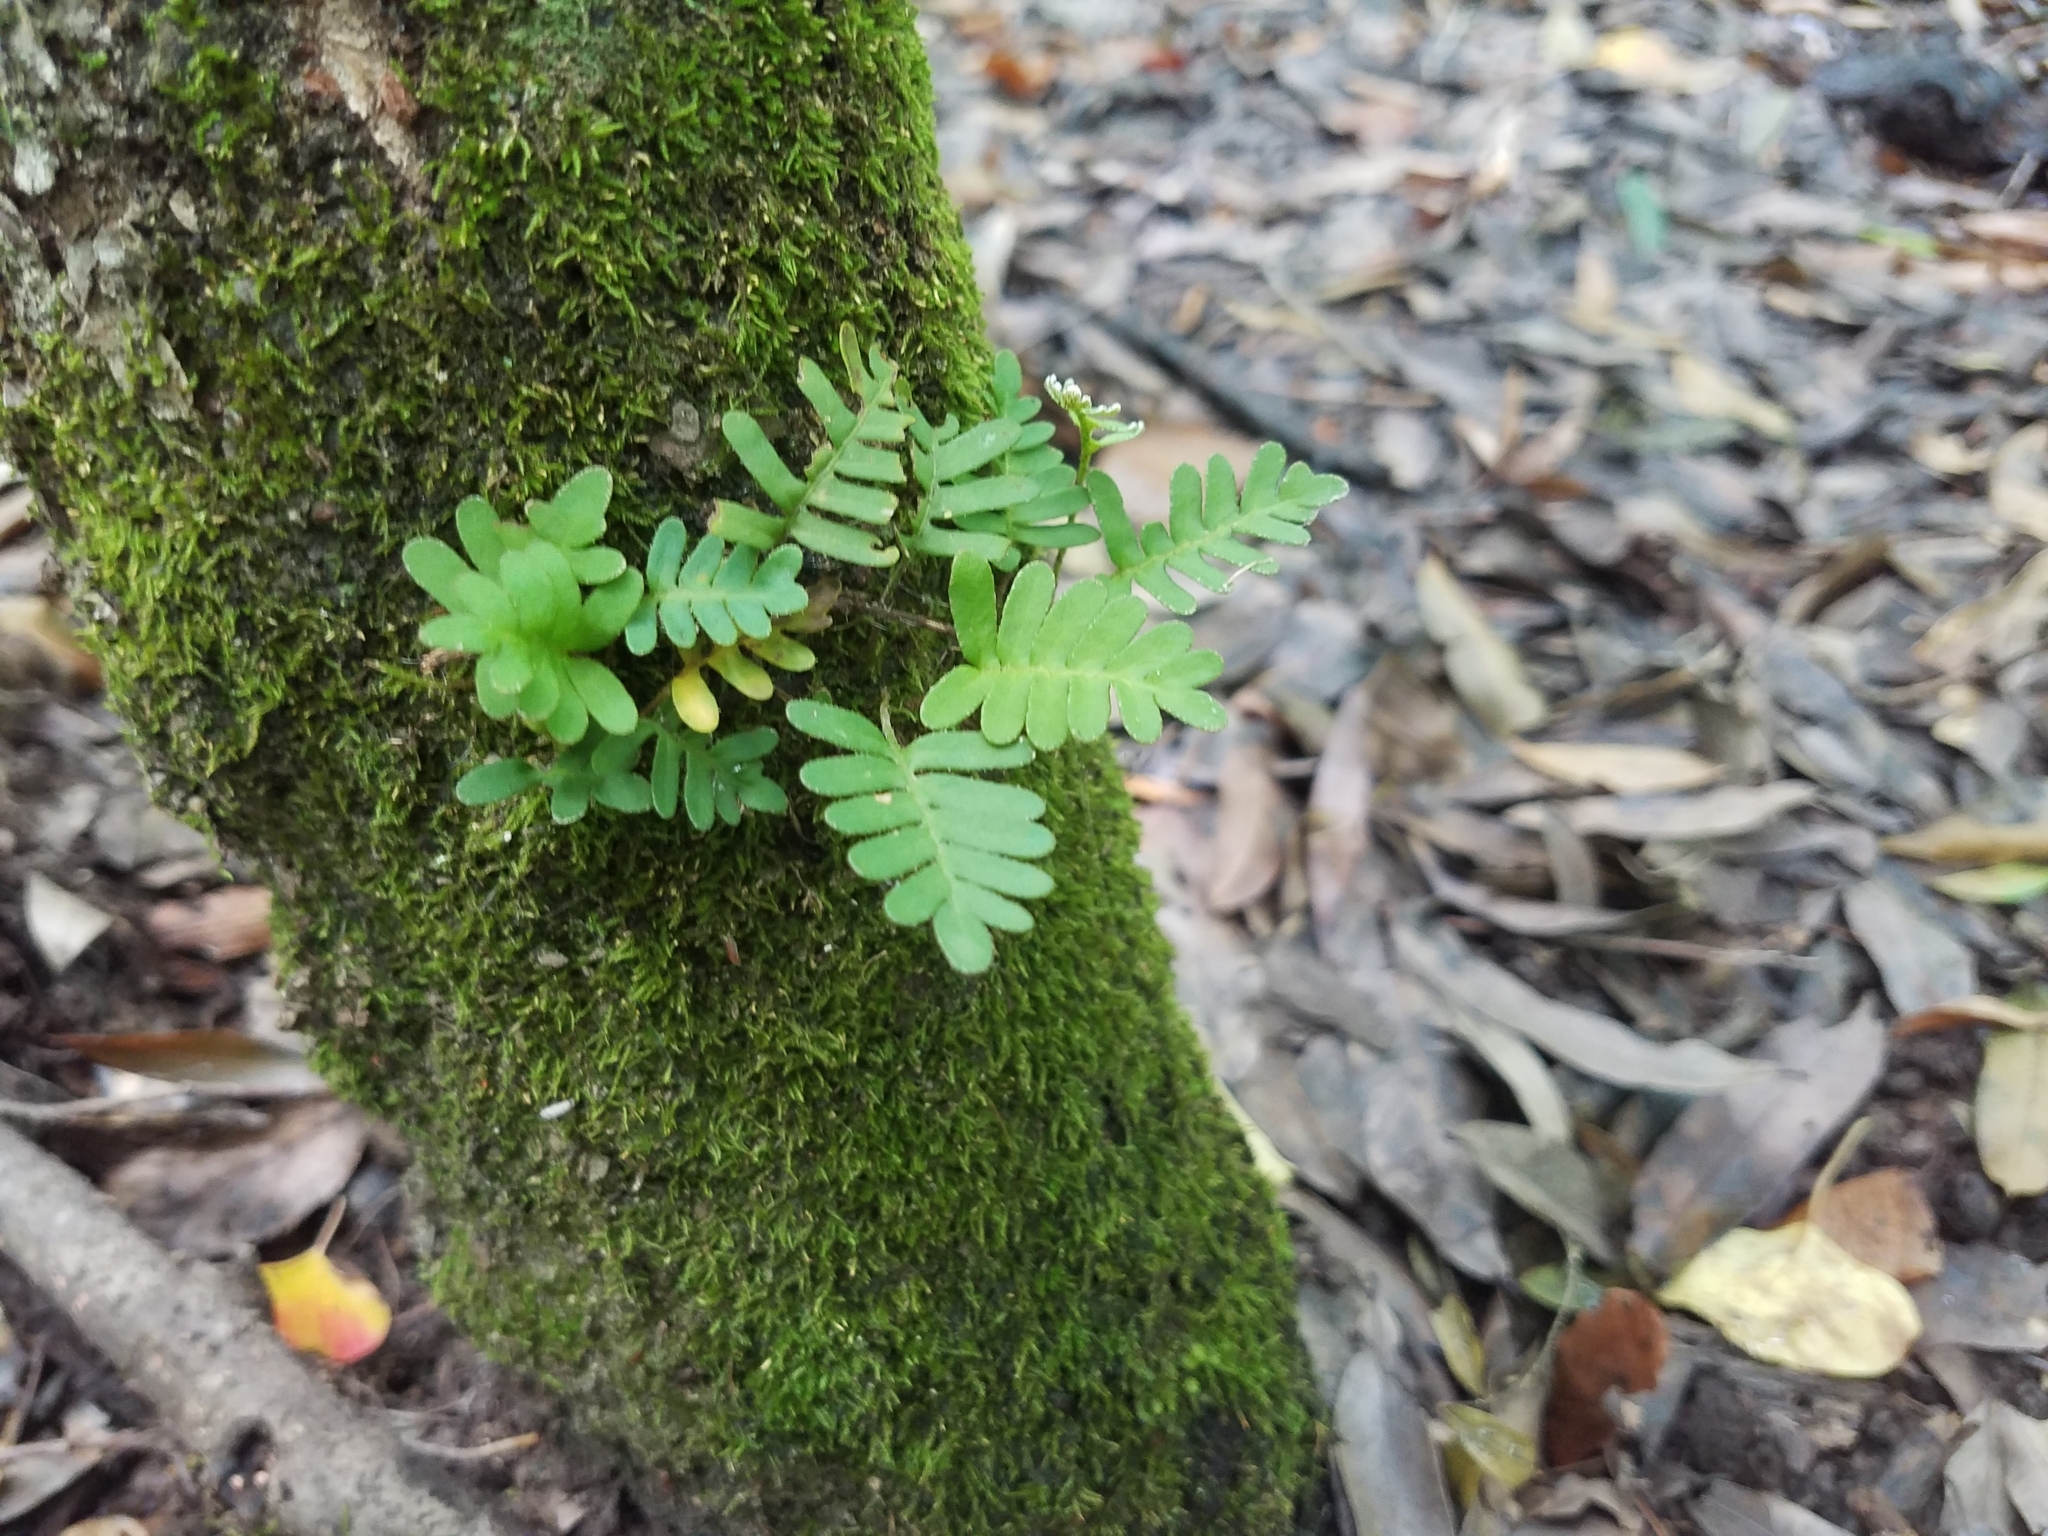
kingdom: Plantae
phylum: Tracheophyta
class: Polypodiopsida
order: Polypodiales
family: Polypodiaceae
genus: Pleopeltis
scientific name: Pleopeltis michauxiana
